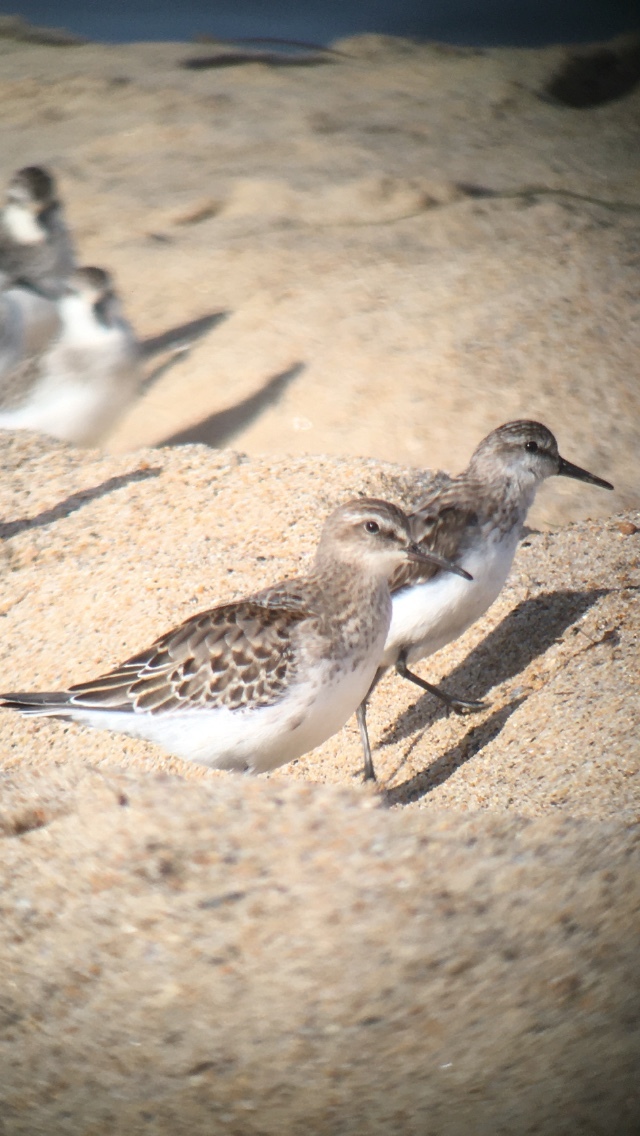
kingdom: Animalia
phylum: Chordata
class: Aves
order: Charadriiformes
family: Scolopacidae
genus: Calidris
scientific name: Calidris fuscicollis
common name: White-rumped sandpiper
